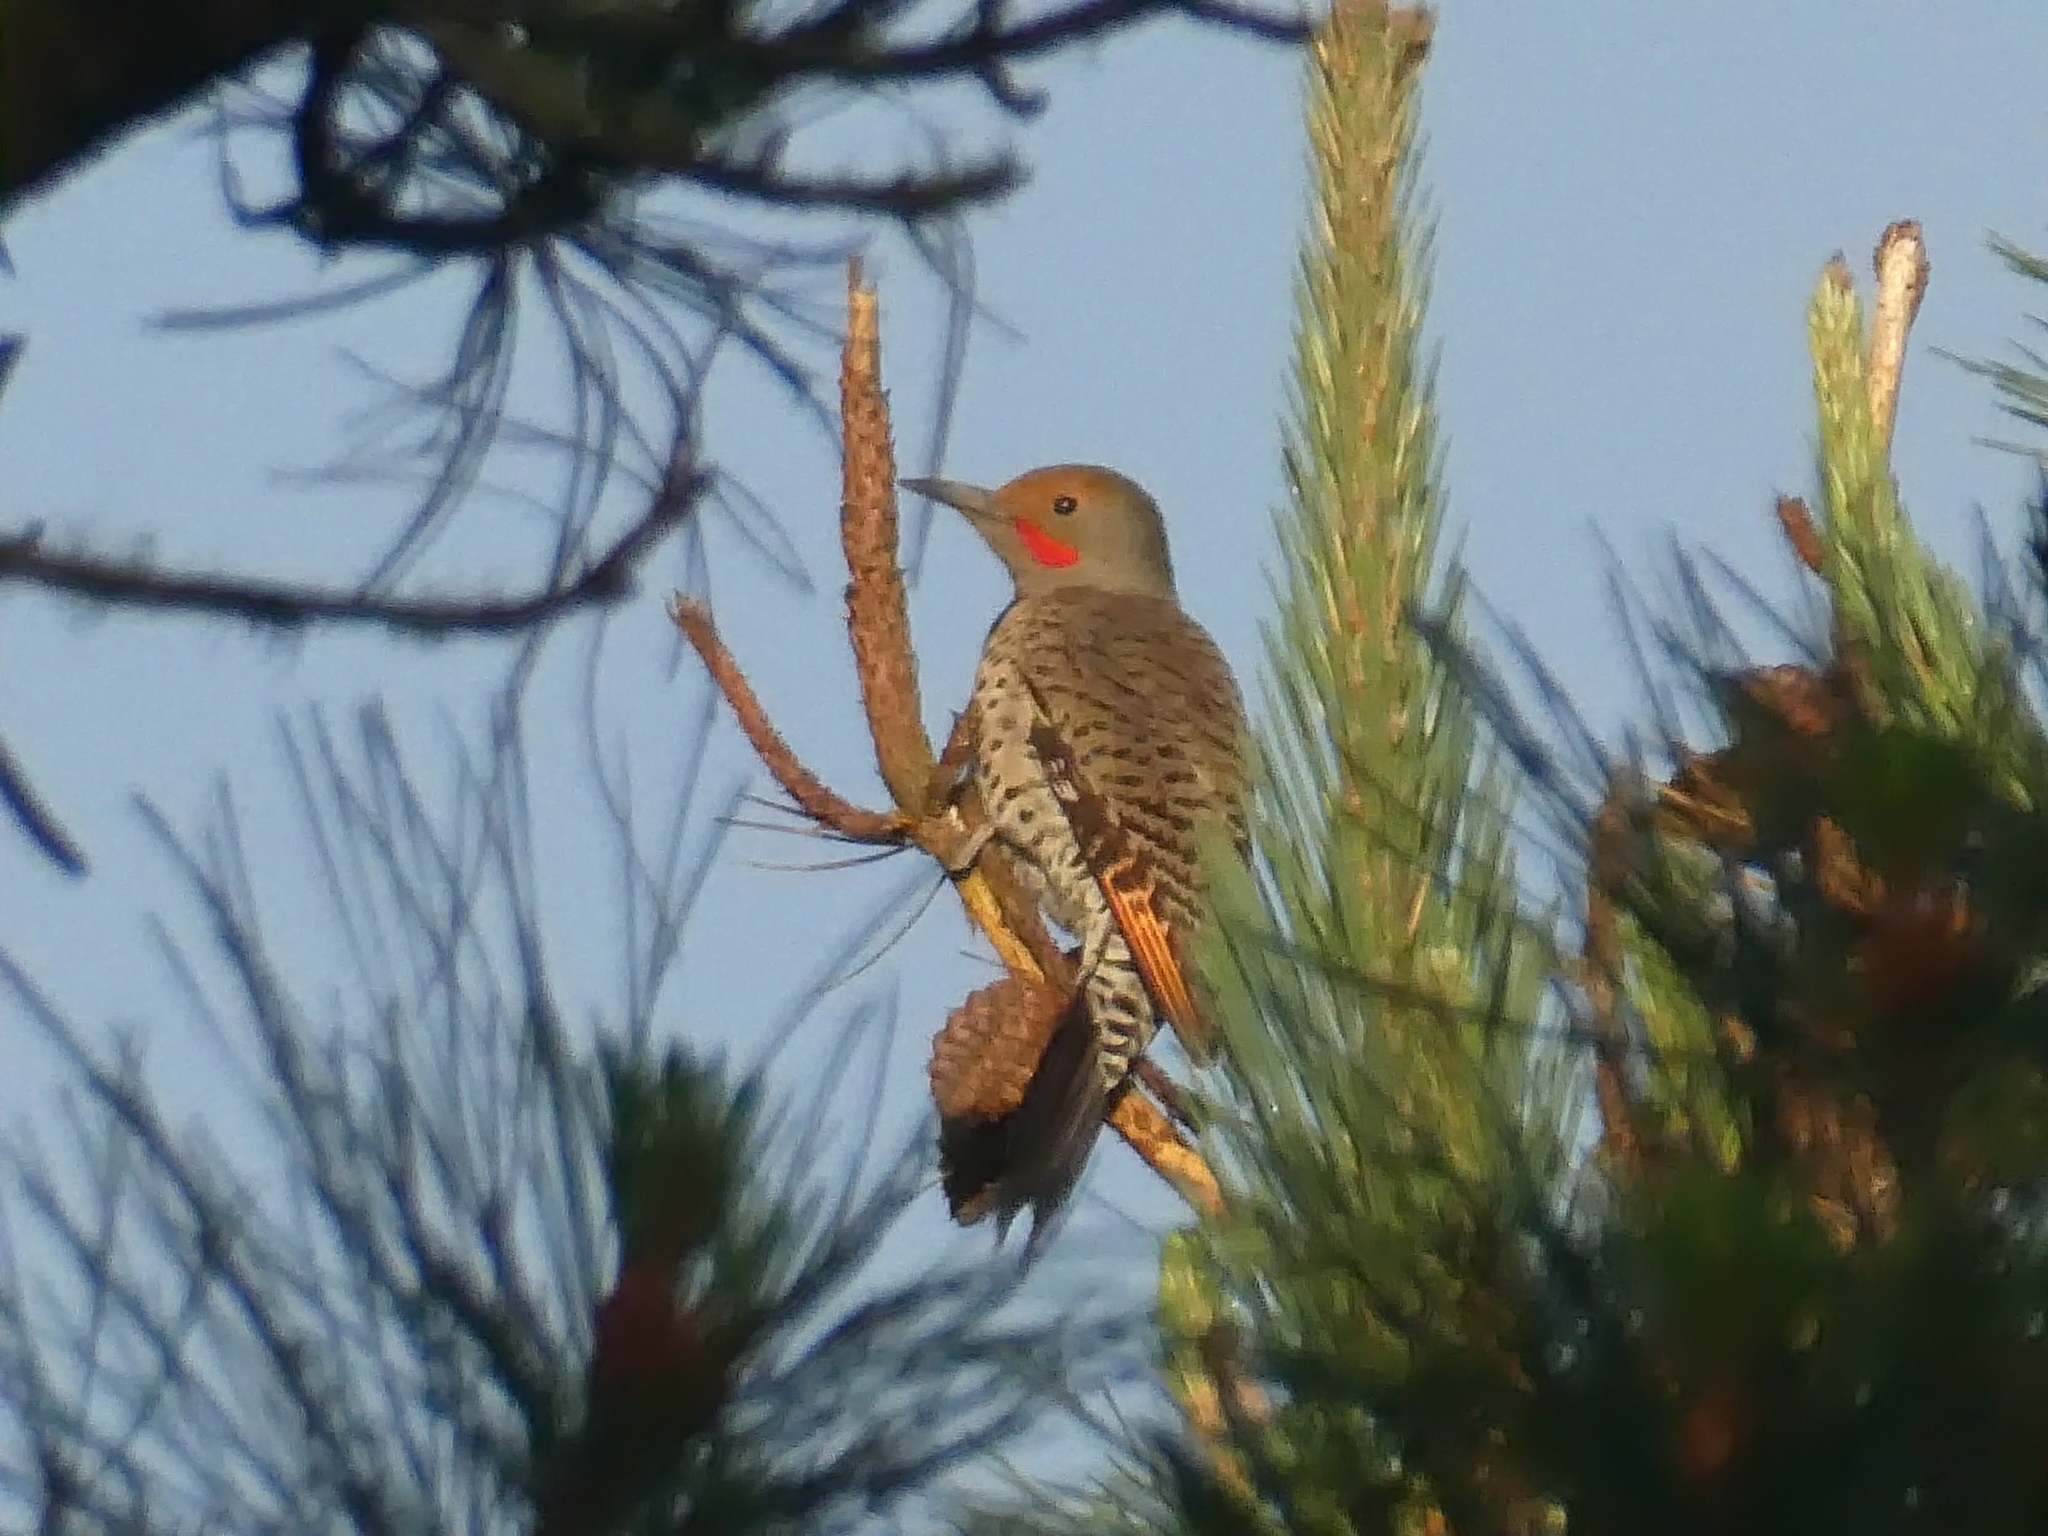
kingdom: Animalia
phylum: Chordata
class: Aves
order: Piciformes
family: Picidae
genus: Colaptes
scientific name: Colaptes auratus
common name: Northern flicker
